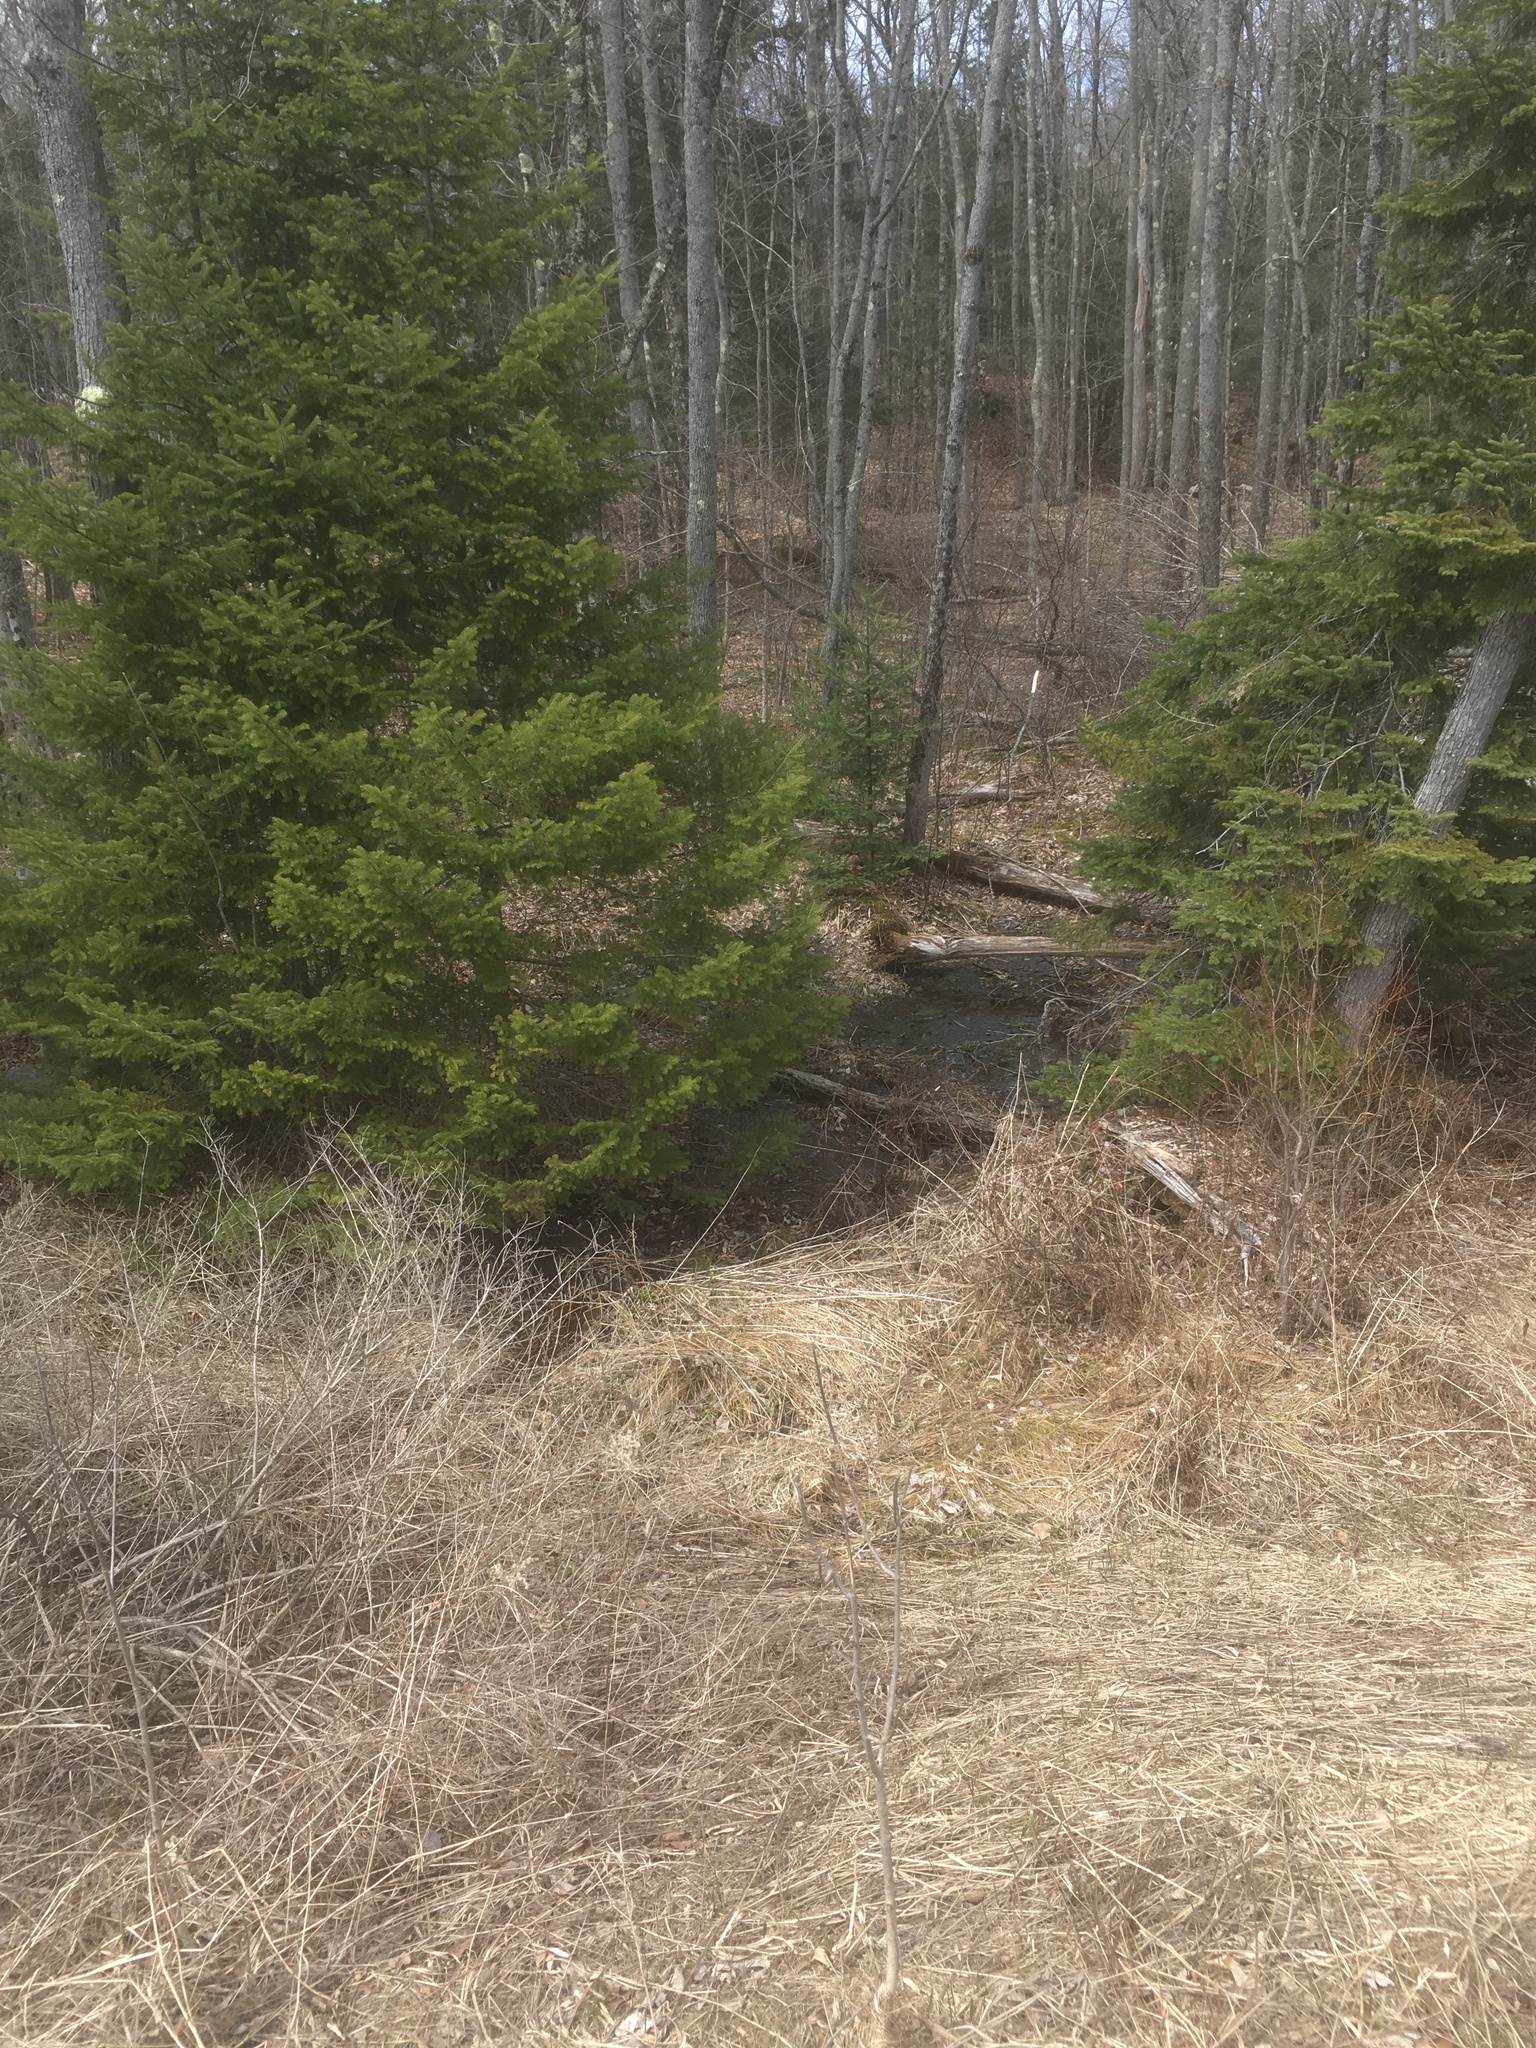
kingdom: Plantae
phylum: Tracheophyta
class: Pinopsida
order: Pinales
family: Pinaceae
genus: Abies
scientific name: Abies balsamea
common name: Balsam fir
